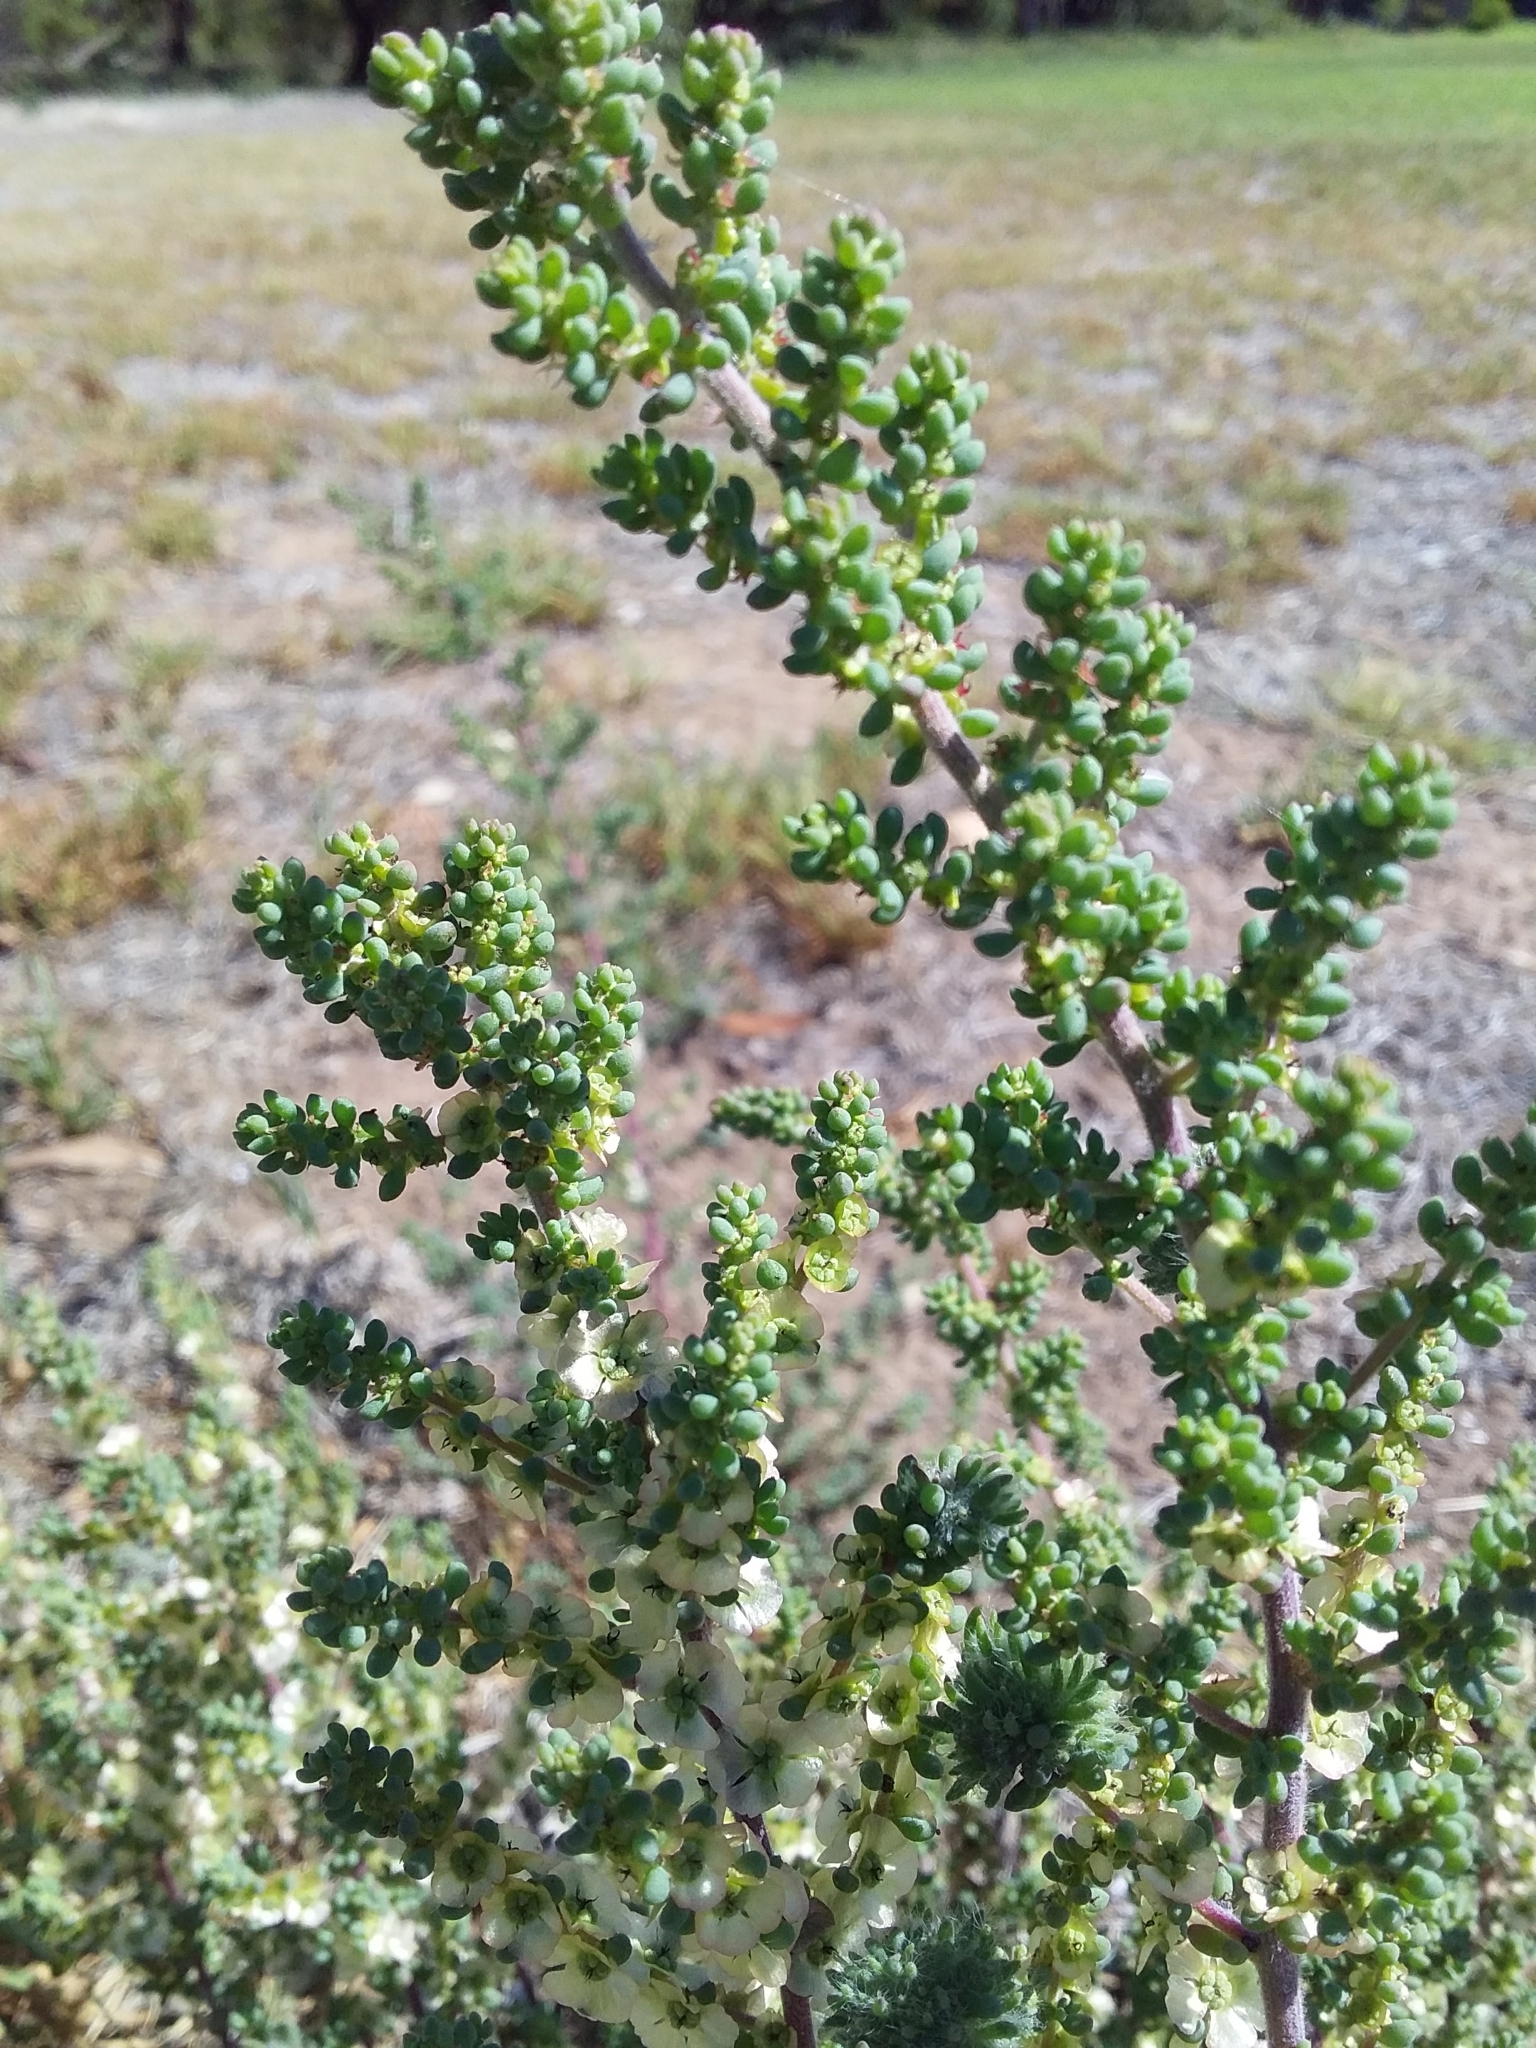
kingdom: Plantae
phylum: Tracheophyta
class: Magnoliopsida
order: Caryophyllales
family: Amaranthaceae
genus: Maireana
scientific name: Maireana brevifolia
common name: Eastern cottonbush
